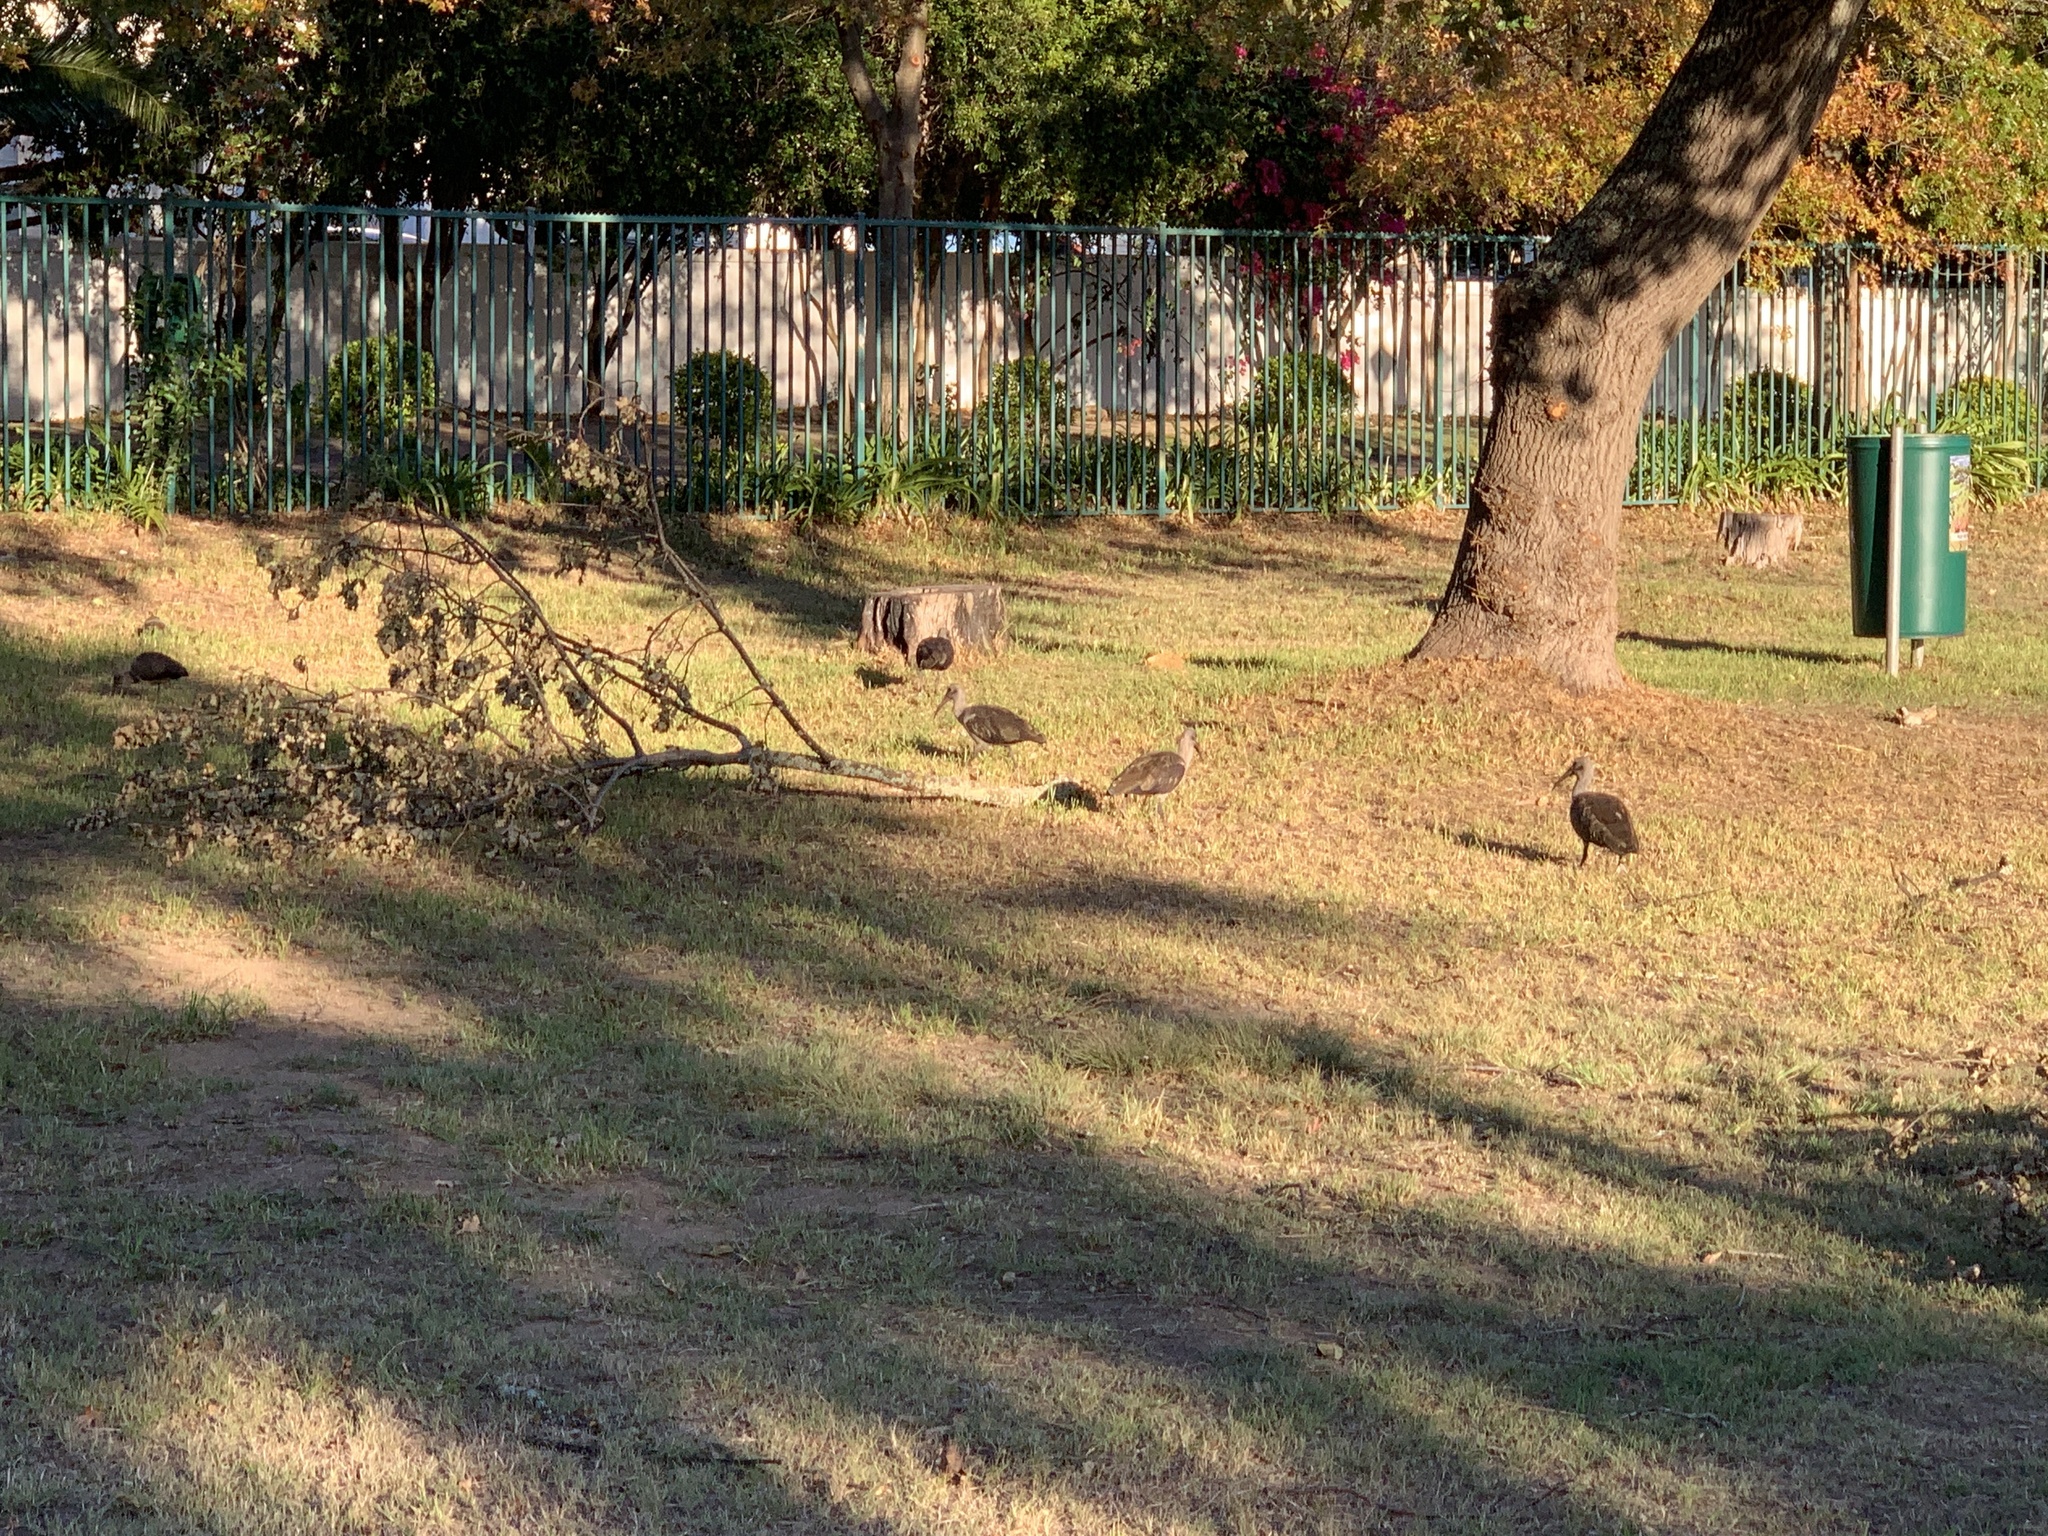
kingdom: Animalia
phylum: Chordata
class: Aves
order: Pelecaniformes
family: Threskiornithidae
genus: Bostrychia
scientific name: Bostrychia hagedash
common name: Hadada ibis
